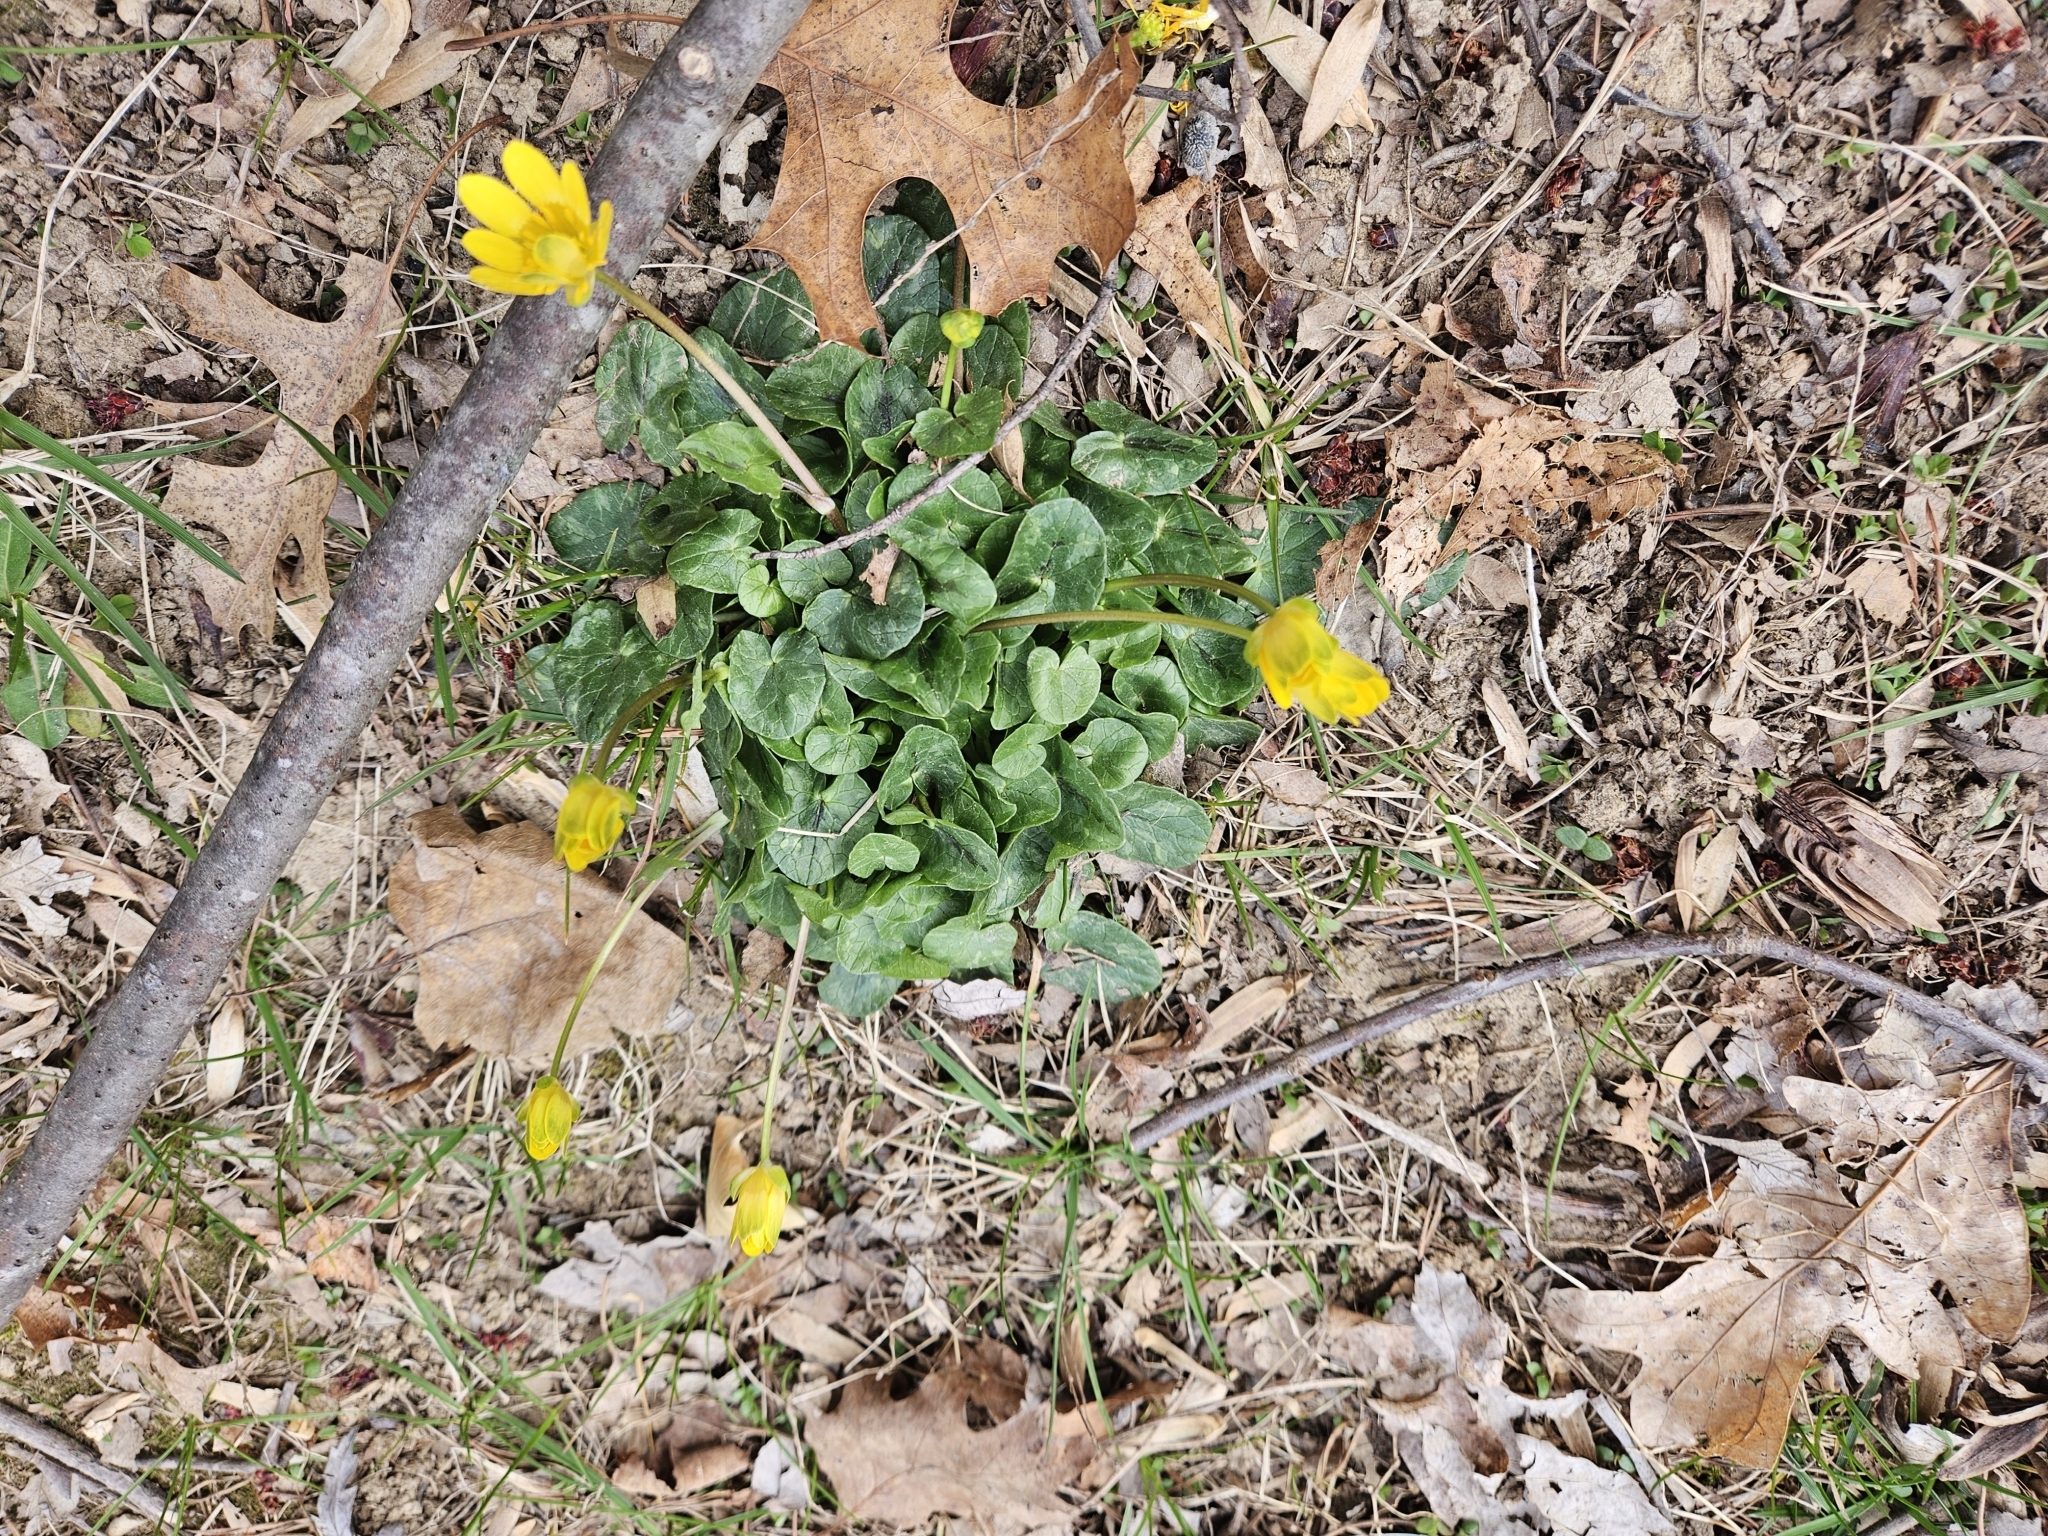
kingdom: Plantae
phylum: Tracheophyta
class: Magnoliopsida
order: Ranunculales
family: Ranunculaceae
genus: Ficaria
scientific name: Ficaria verna
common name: Lesser celandine
